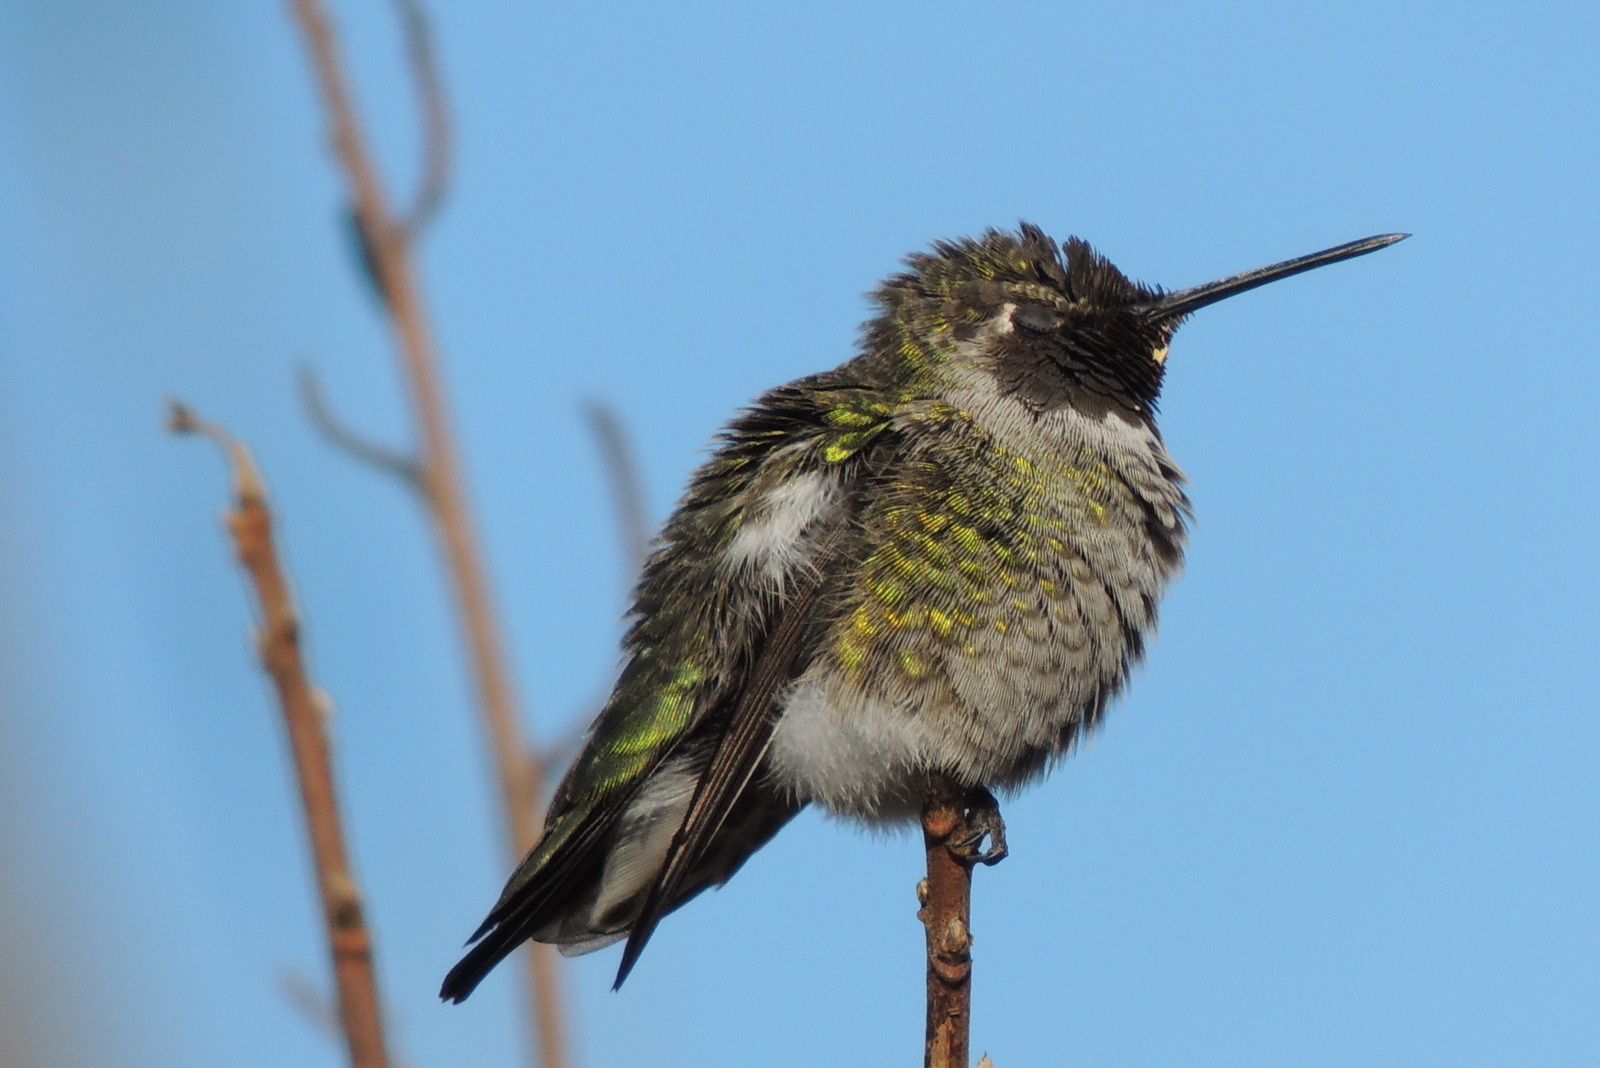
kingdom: Animalia
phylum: Chordata
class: Aves
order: Apodiformes
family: Trochilidae
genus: Calypte
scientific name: Calypte anna
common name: Anna's hummingbird
